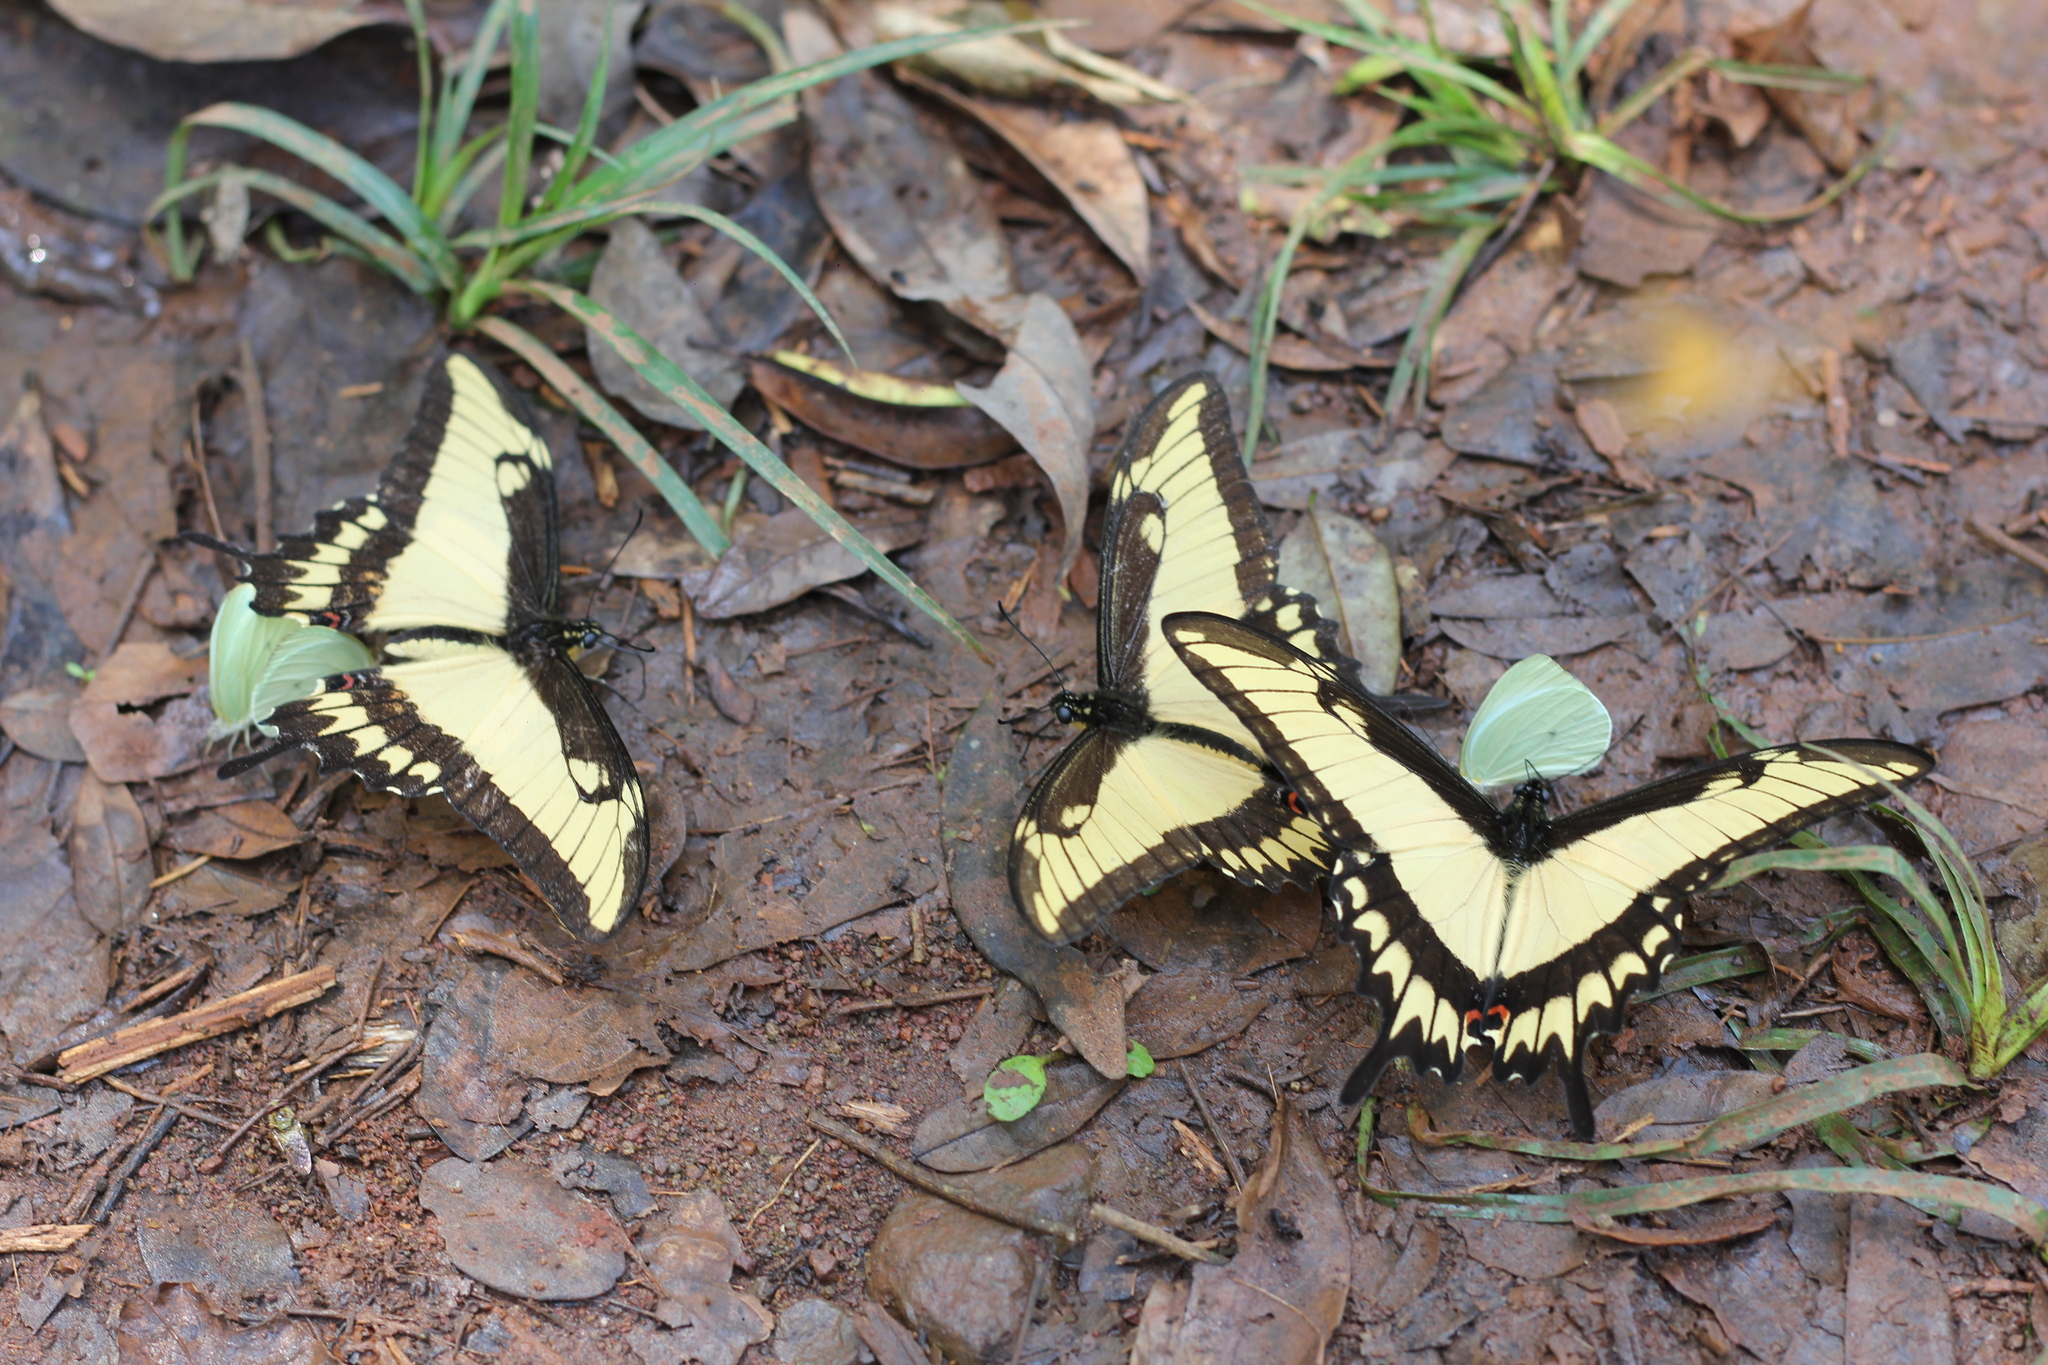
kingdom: Animalia
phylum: Arthropoda
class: Insecta
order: Lepidoptera
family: Papilionidae
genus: Papilio
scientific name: Papilio astyalus
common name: Astyalus swallowtail
